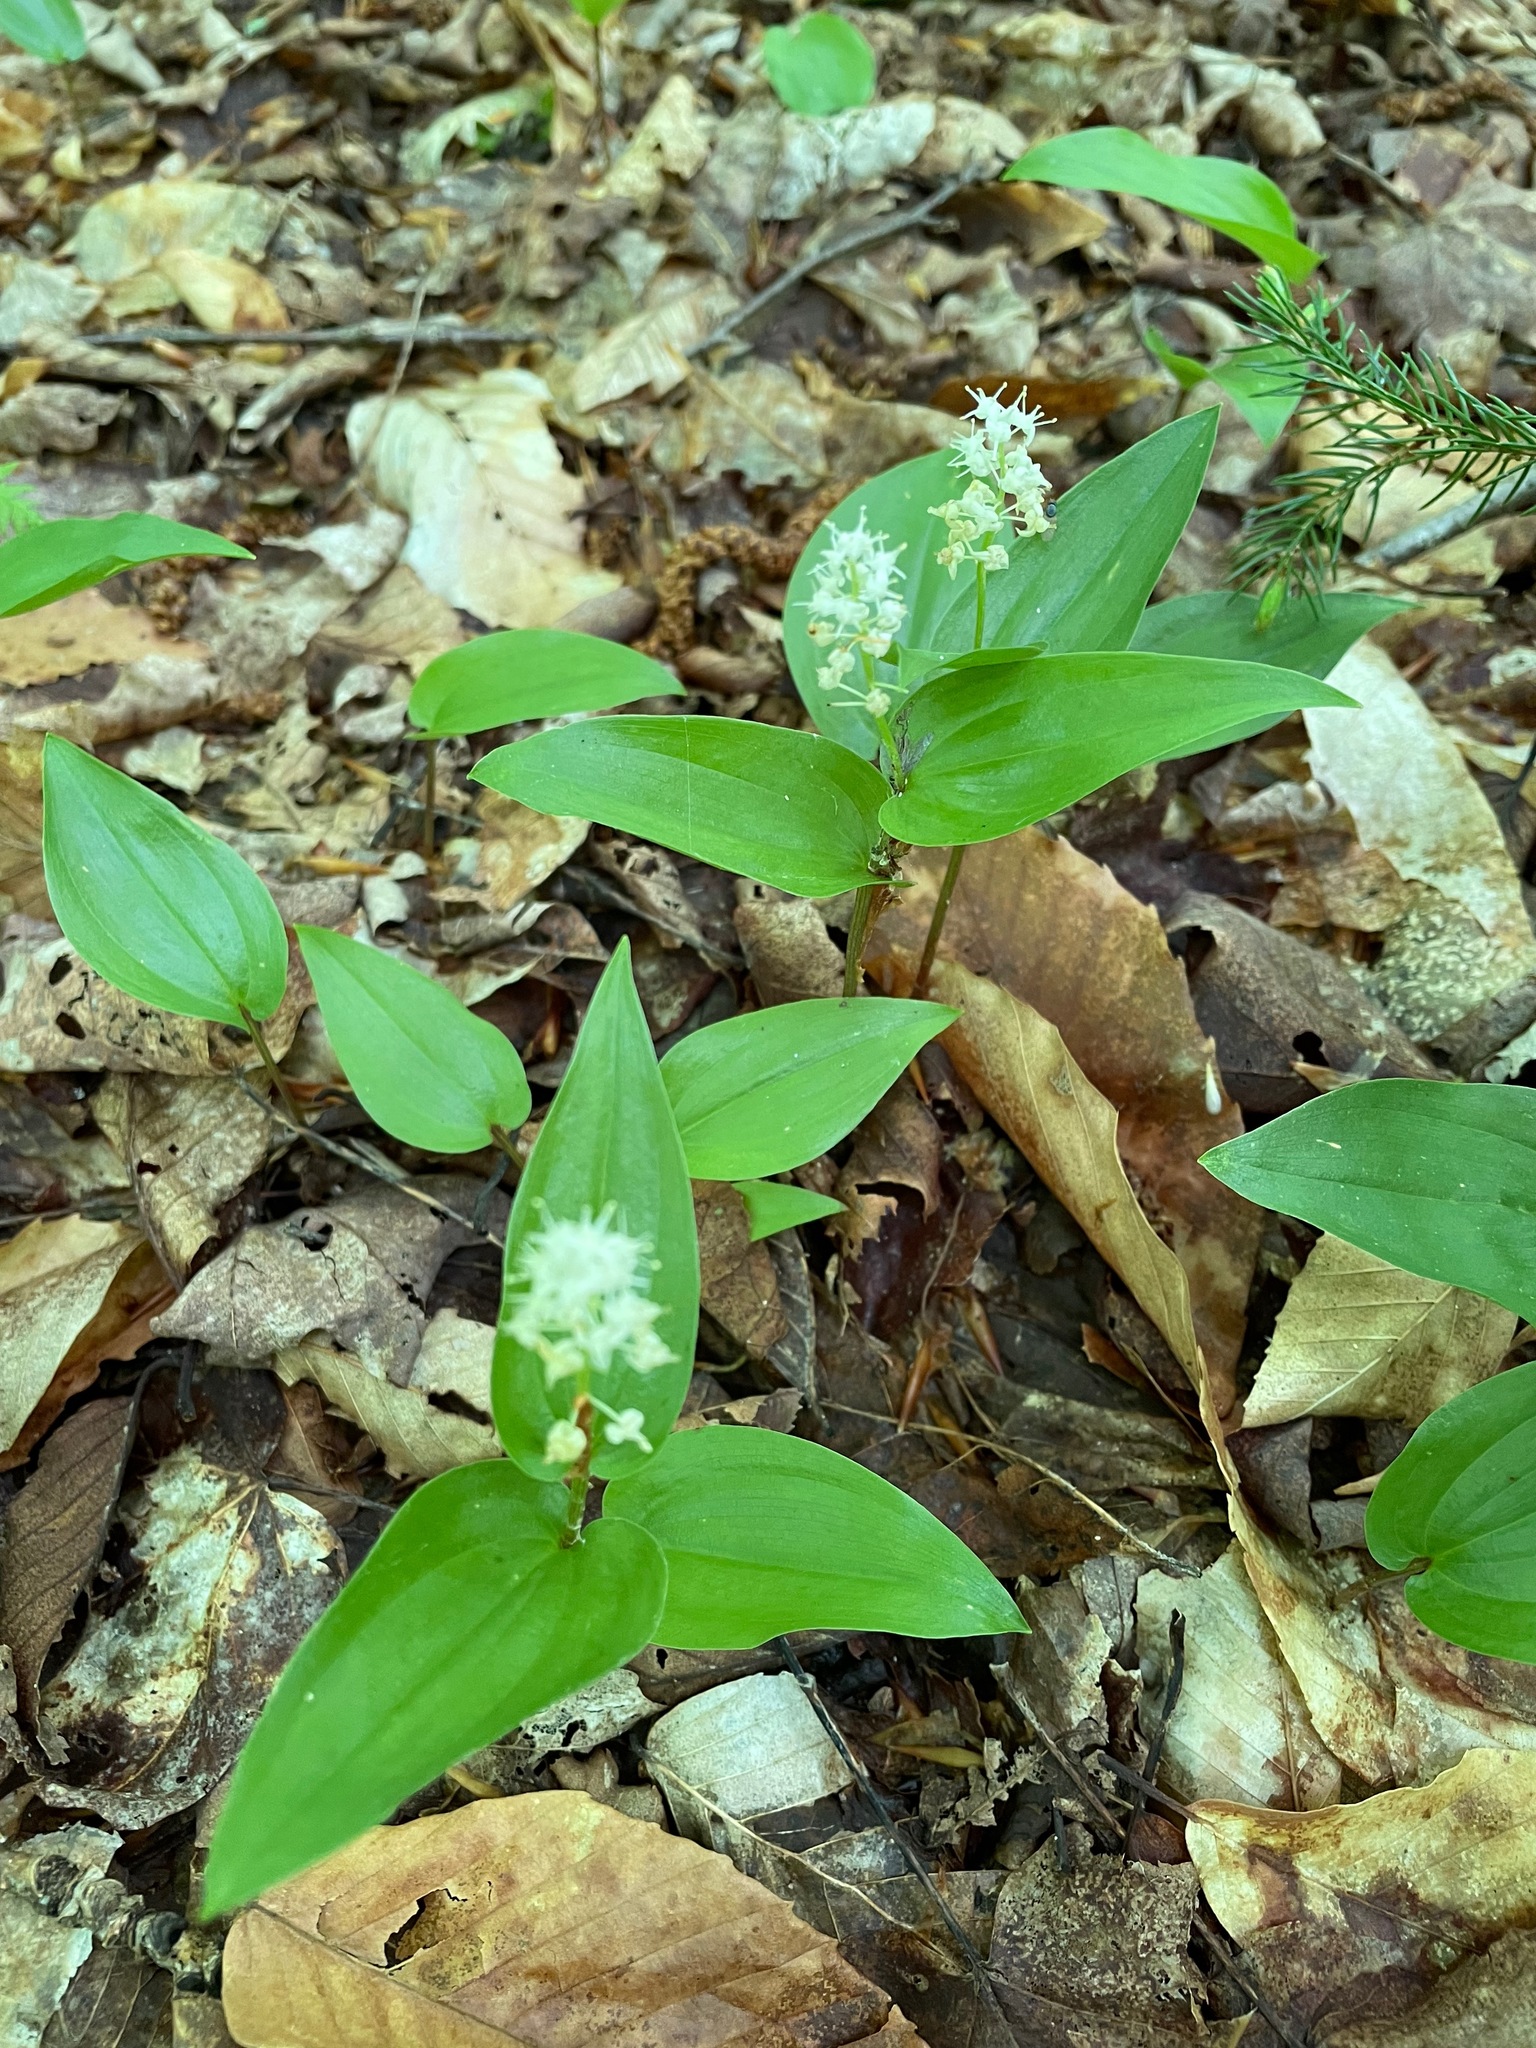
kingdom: Plantae
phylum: Tracheophyta
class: Liliopsida
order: Asparagales
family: Asparagaceae
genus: Maianthemum
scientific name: Maianthemum canadense
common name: False lily-of-the-valley
